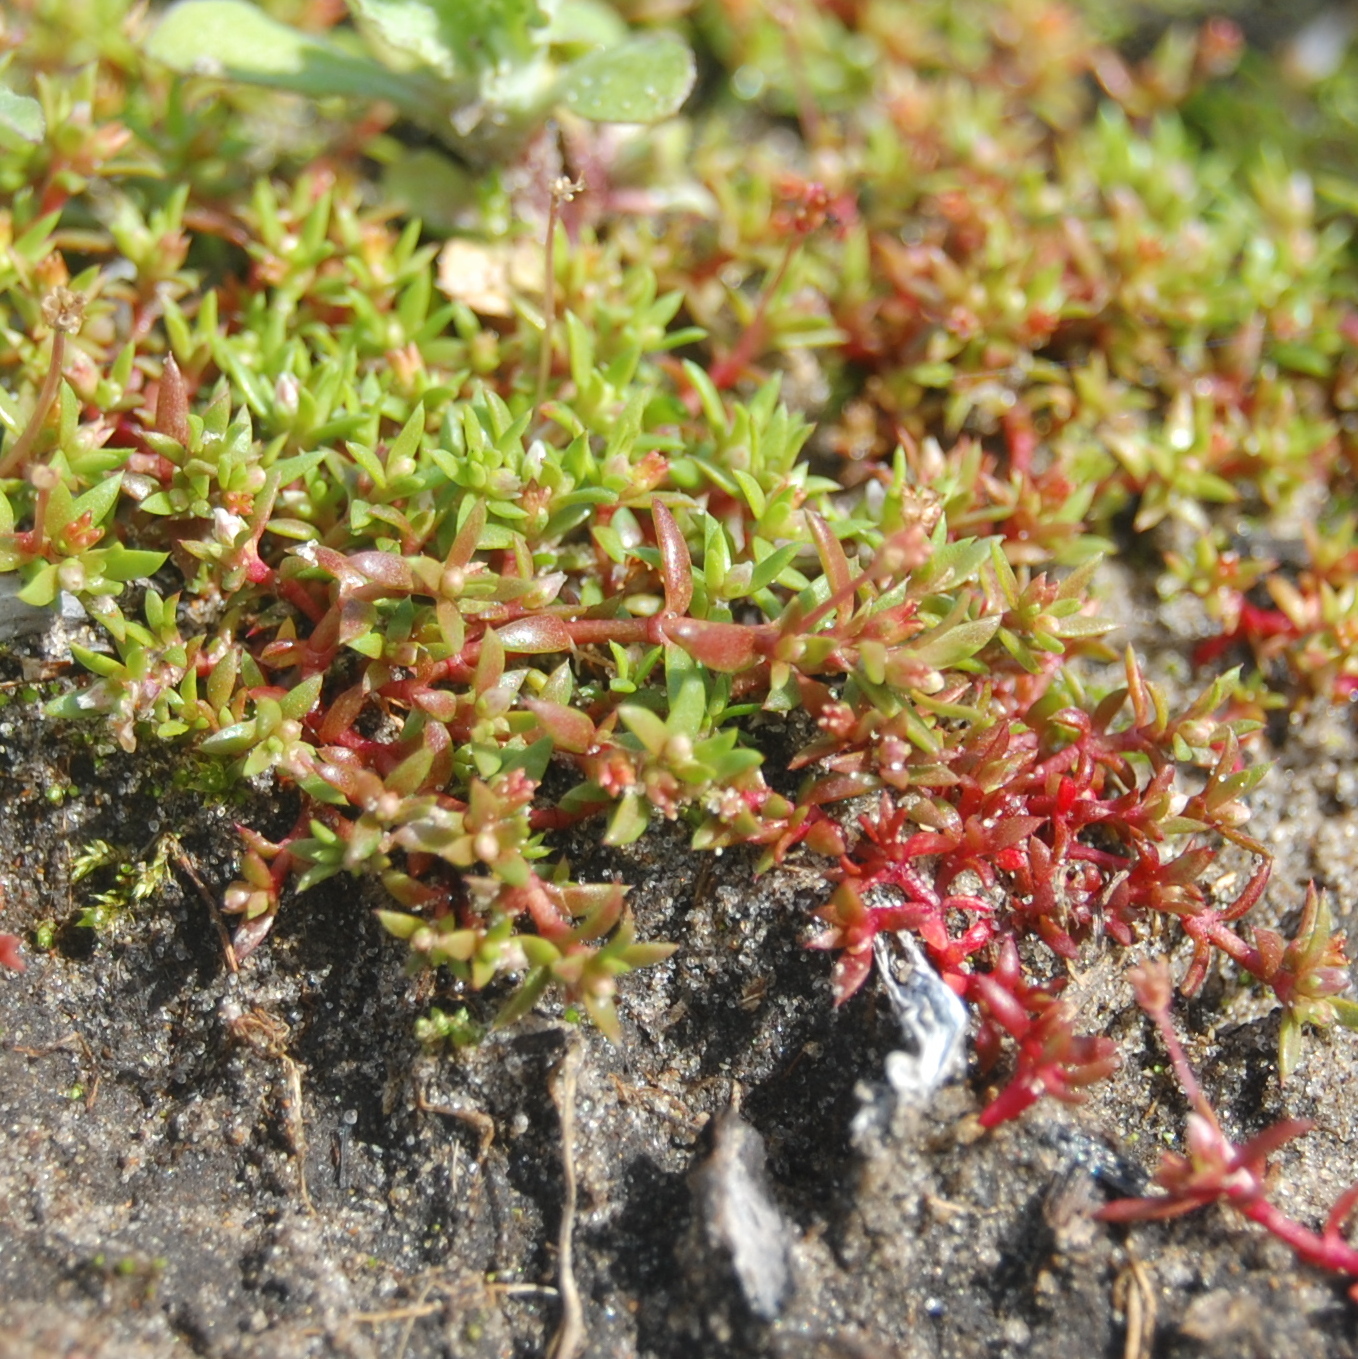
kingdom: Plantae
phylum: Tracheophyta
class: Magnoliopsida
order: Saxifragales
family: Crassulaceae
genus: Crassula
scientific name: Crassula peduncularis
